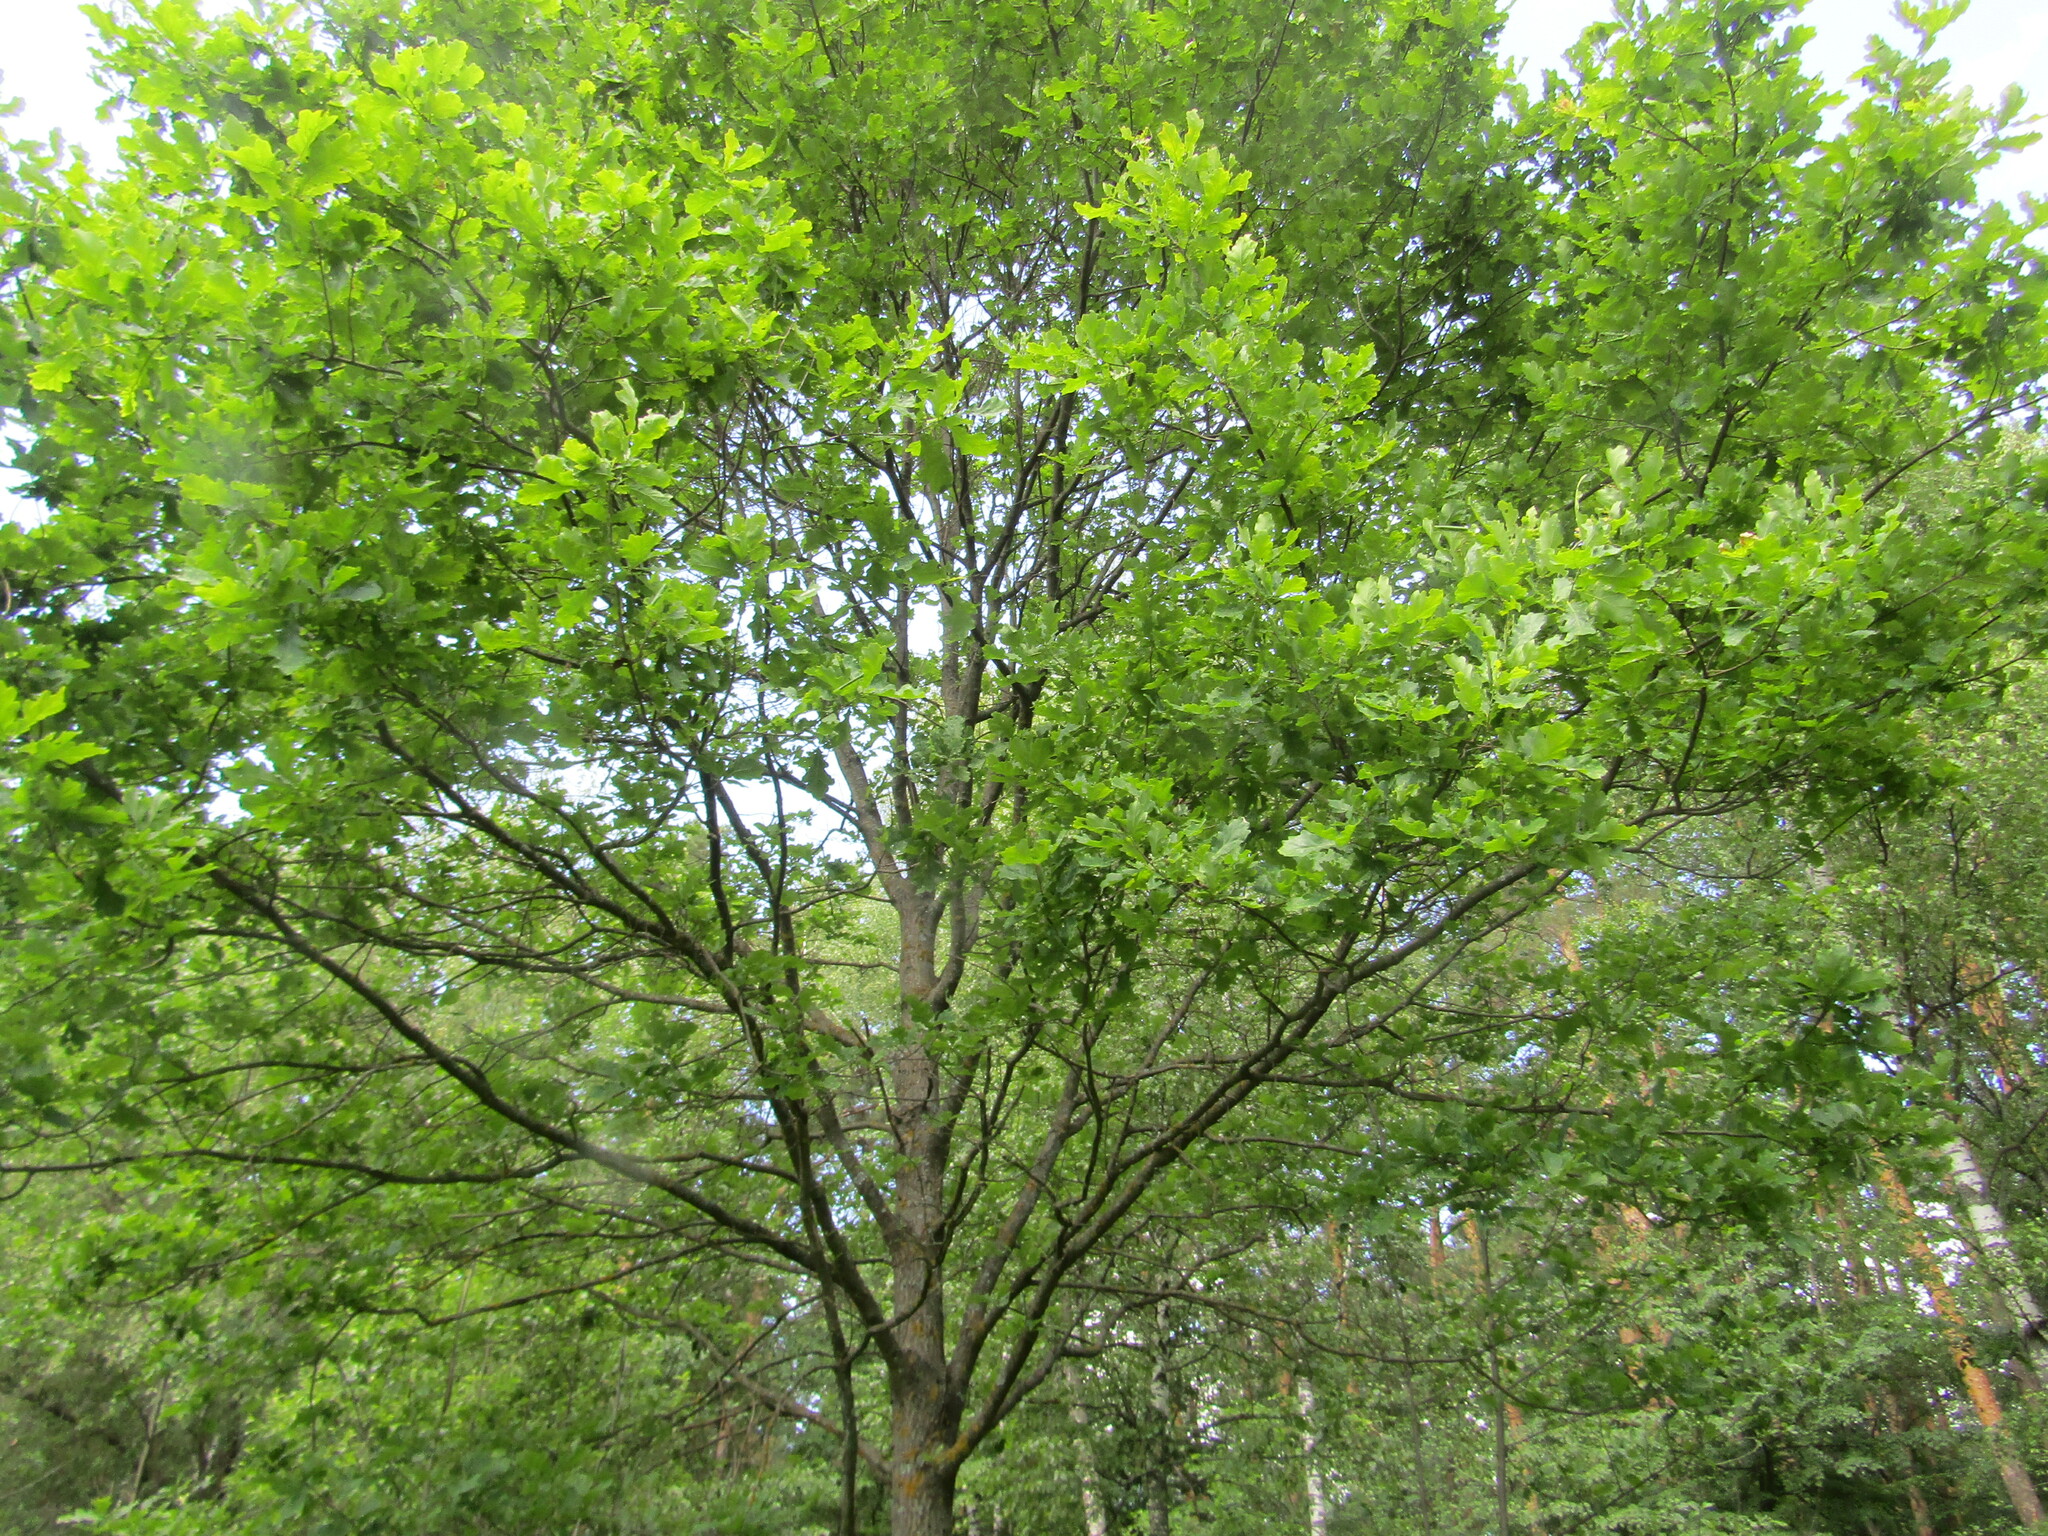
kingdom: Plantae
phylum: Tracheophyta
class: Magnoliopsida
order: Fagales
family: Fagaceae
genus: Quercus
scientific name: Quercus robur
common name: Pedunculate oak
